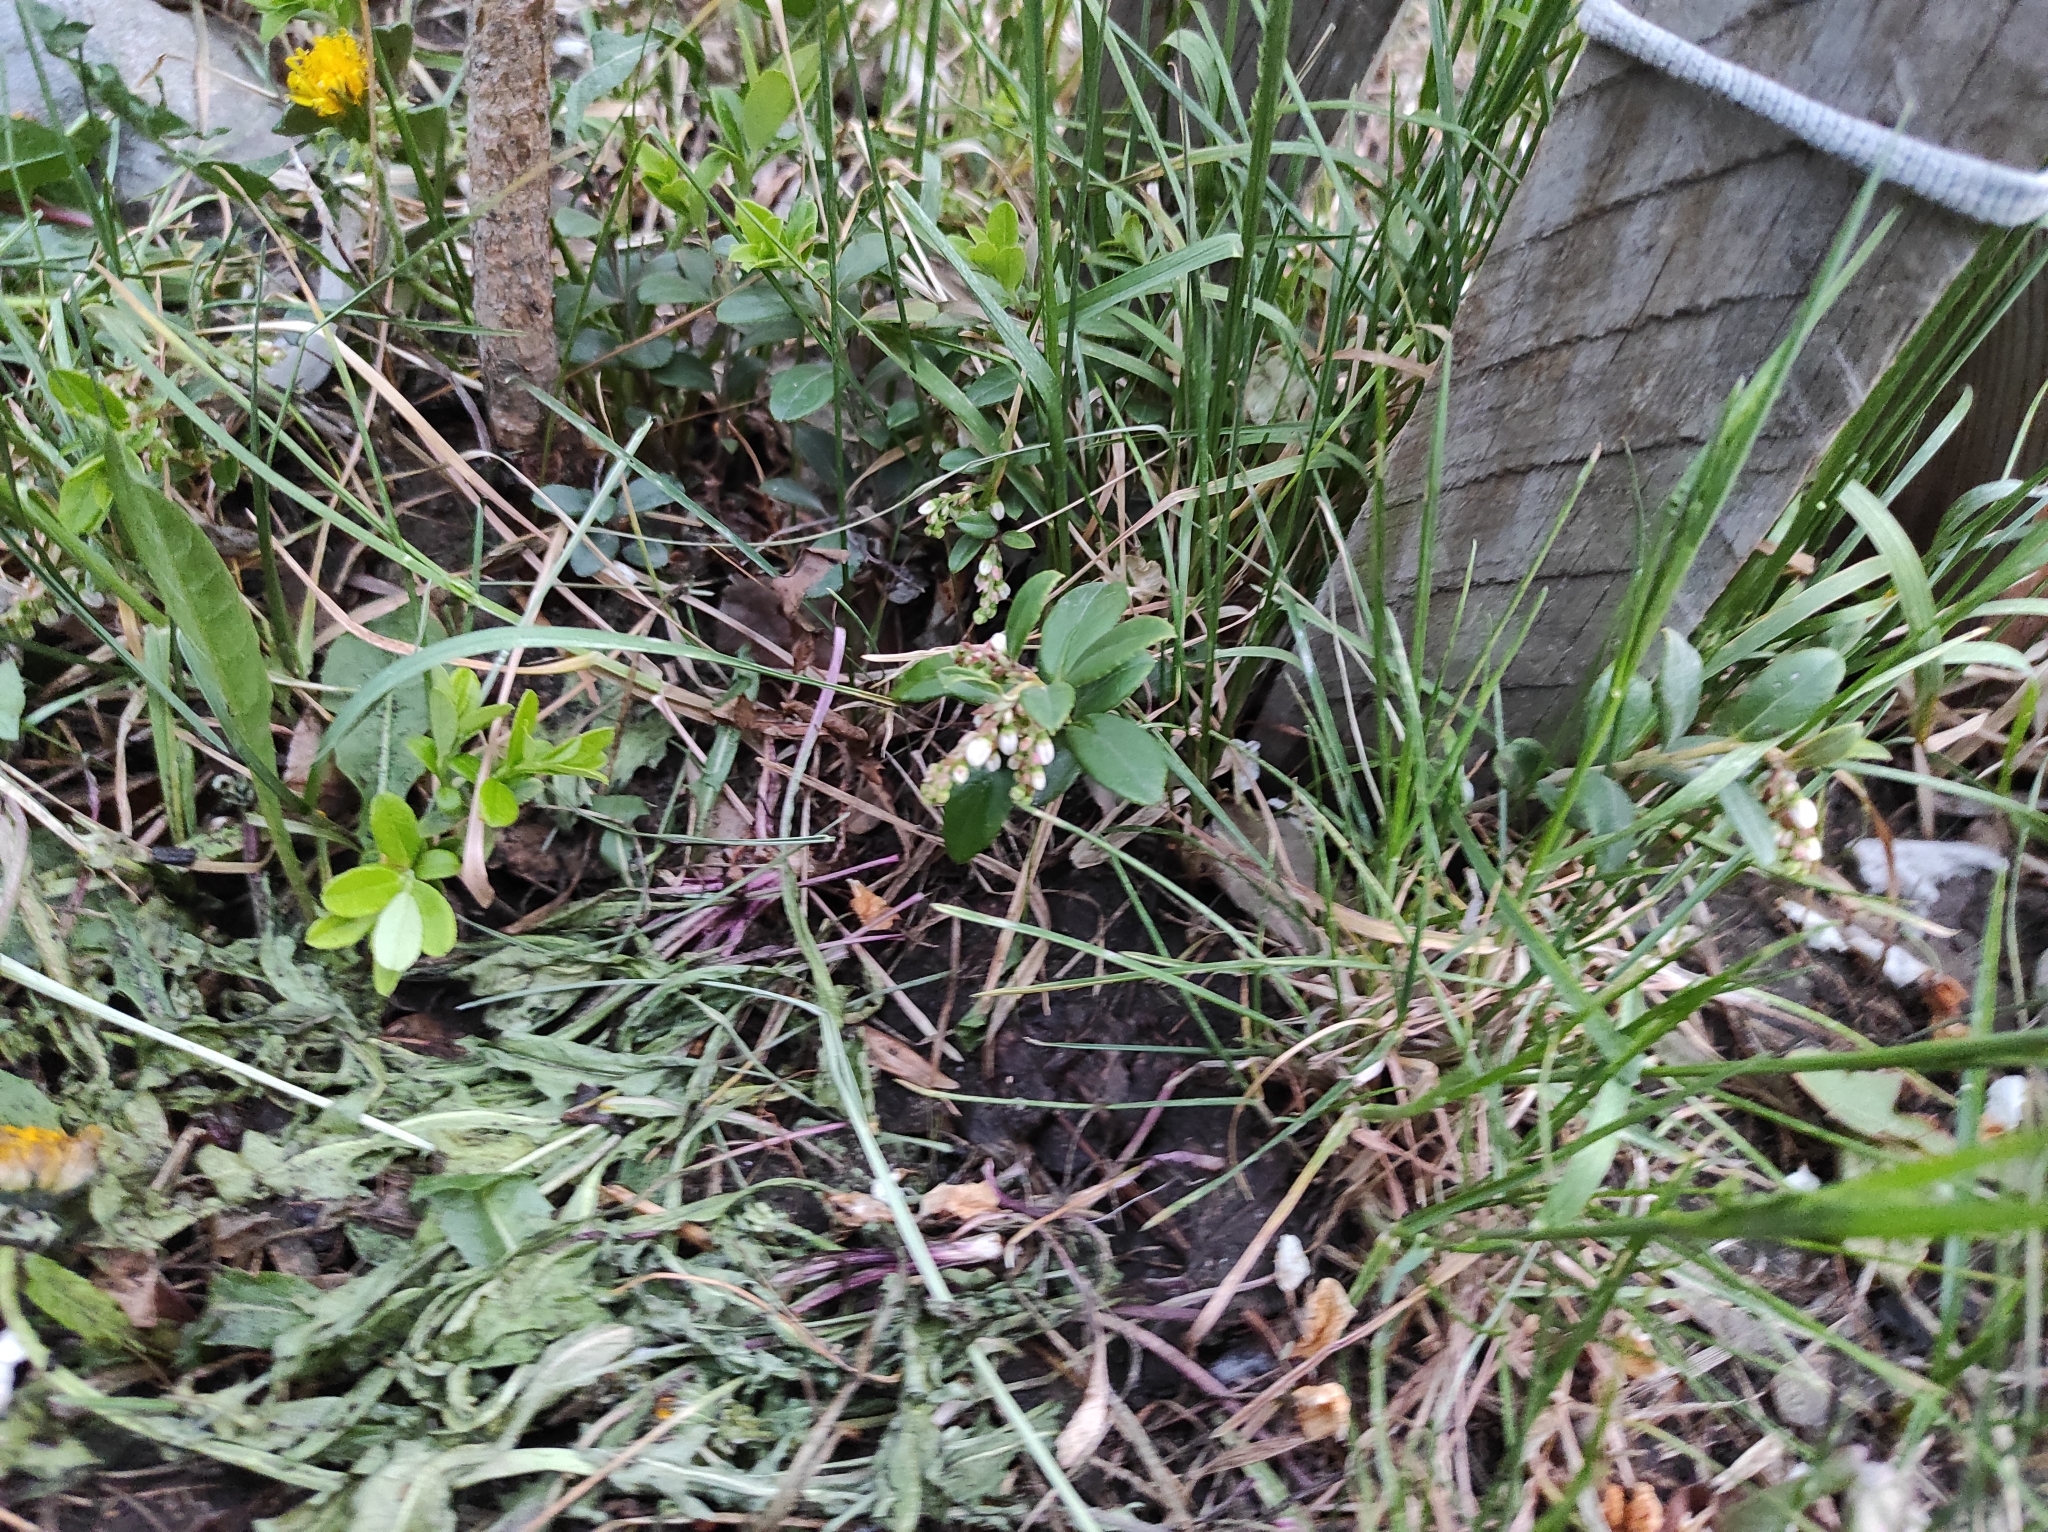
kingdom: Plantae
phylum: Tracheophyta
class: Magnoliopsida
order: Ericales
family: Ericaceae
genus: Vaccinium
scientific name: Vaccinium vitis-idaea
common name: Cowberry
